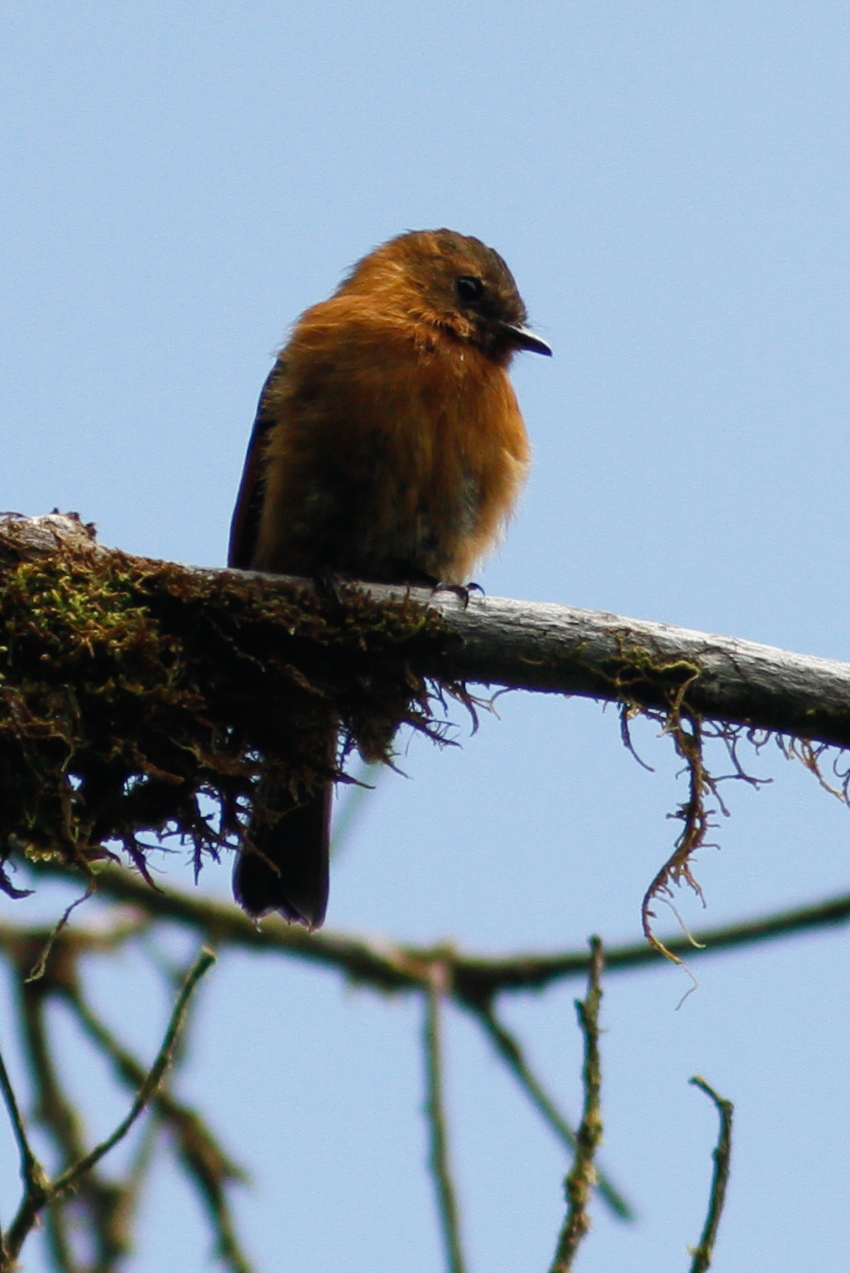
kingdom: Animalia
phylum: Chordata
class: Aves
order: Passeriformes
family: Tyrannidae
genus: Pyrrhomyias
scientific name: Pyrrhomyias cinnamomeus
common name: Cinnamon flycatcher
